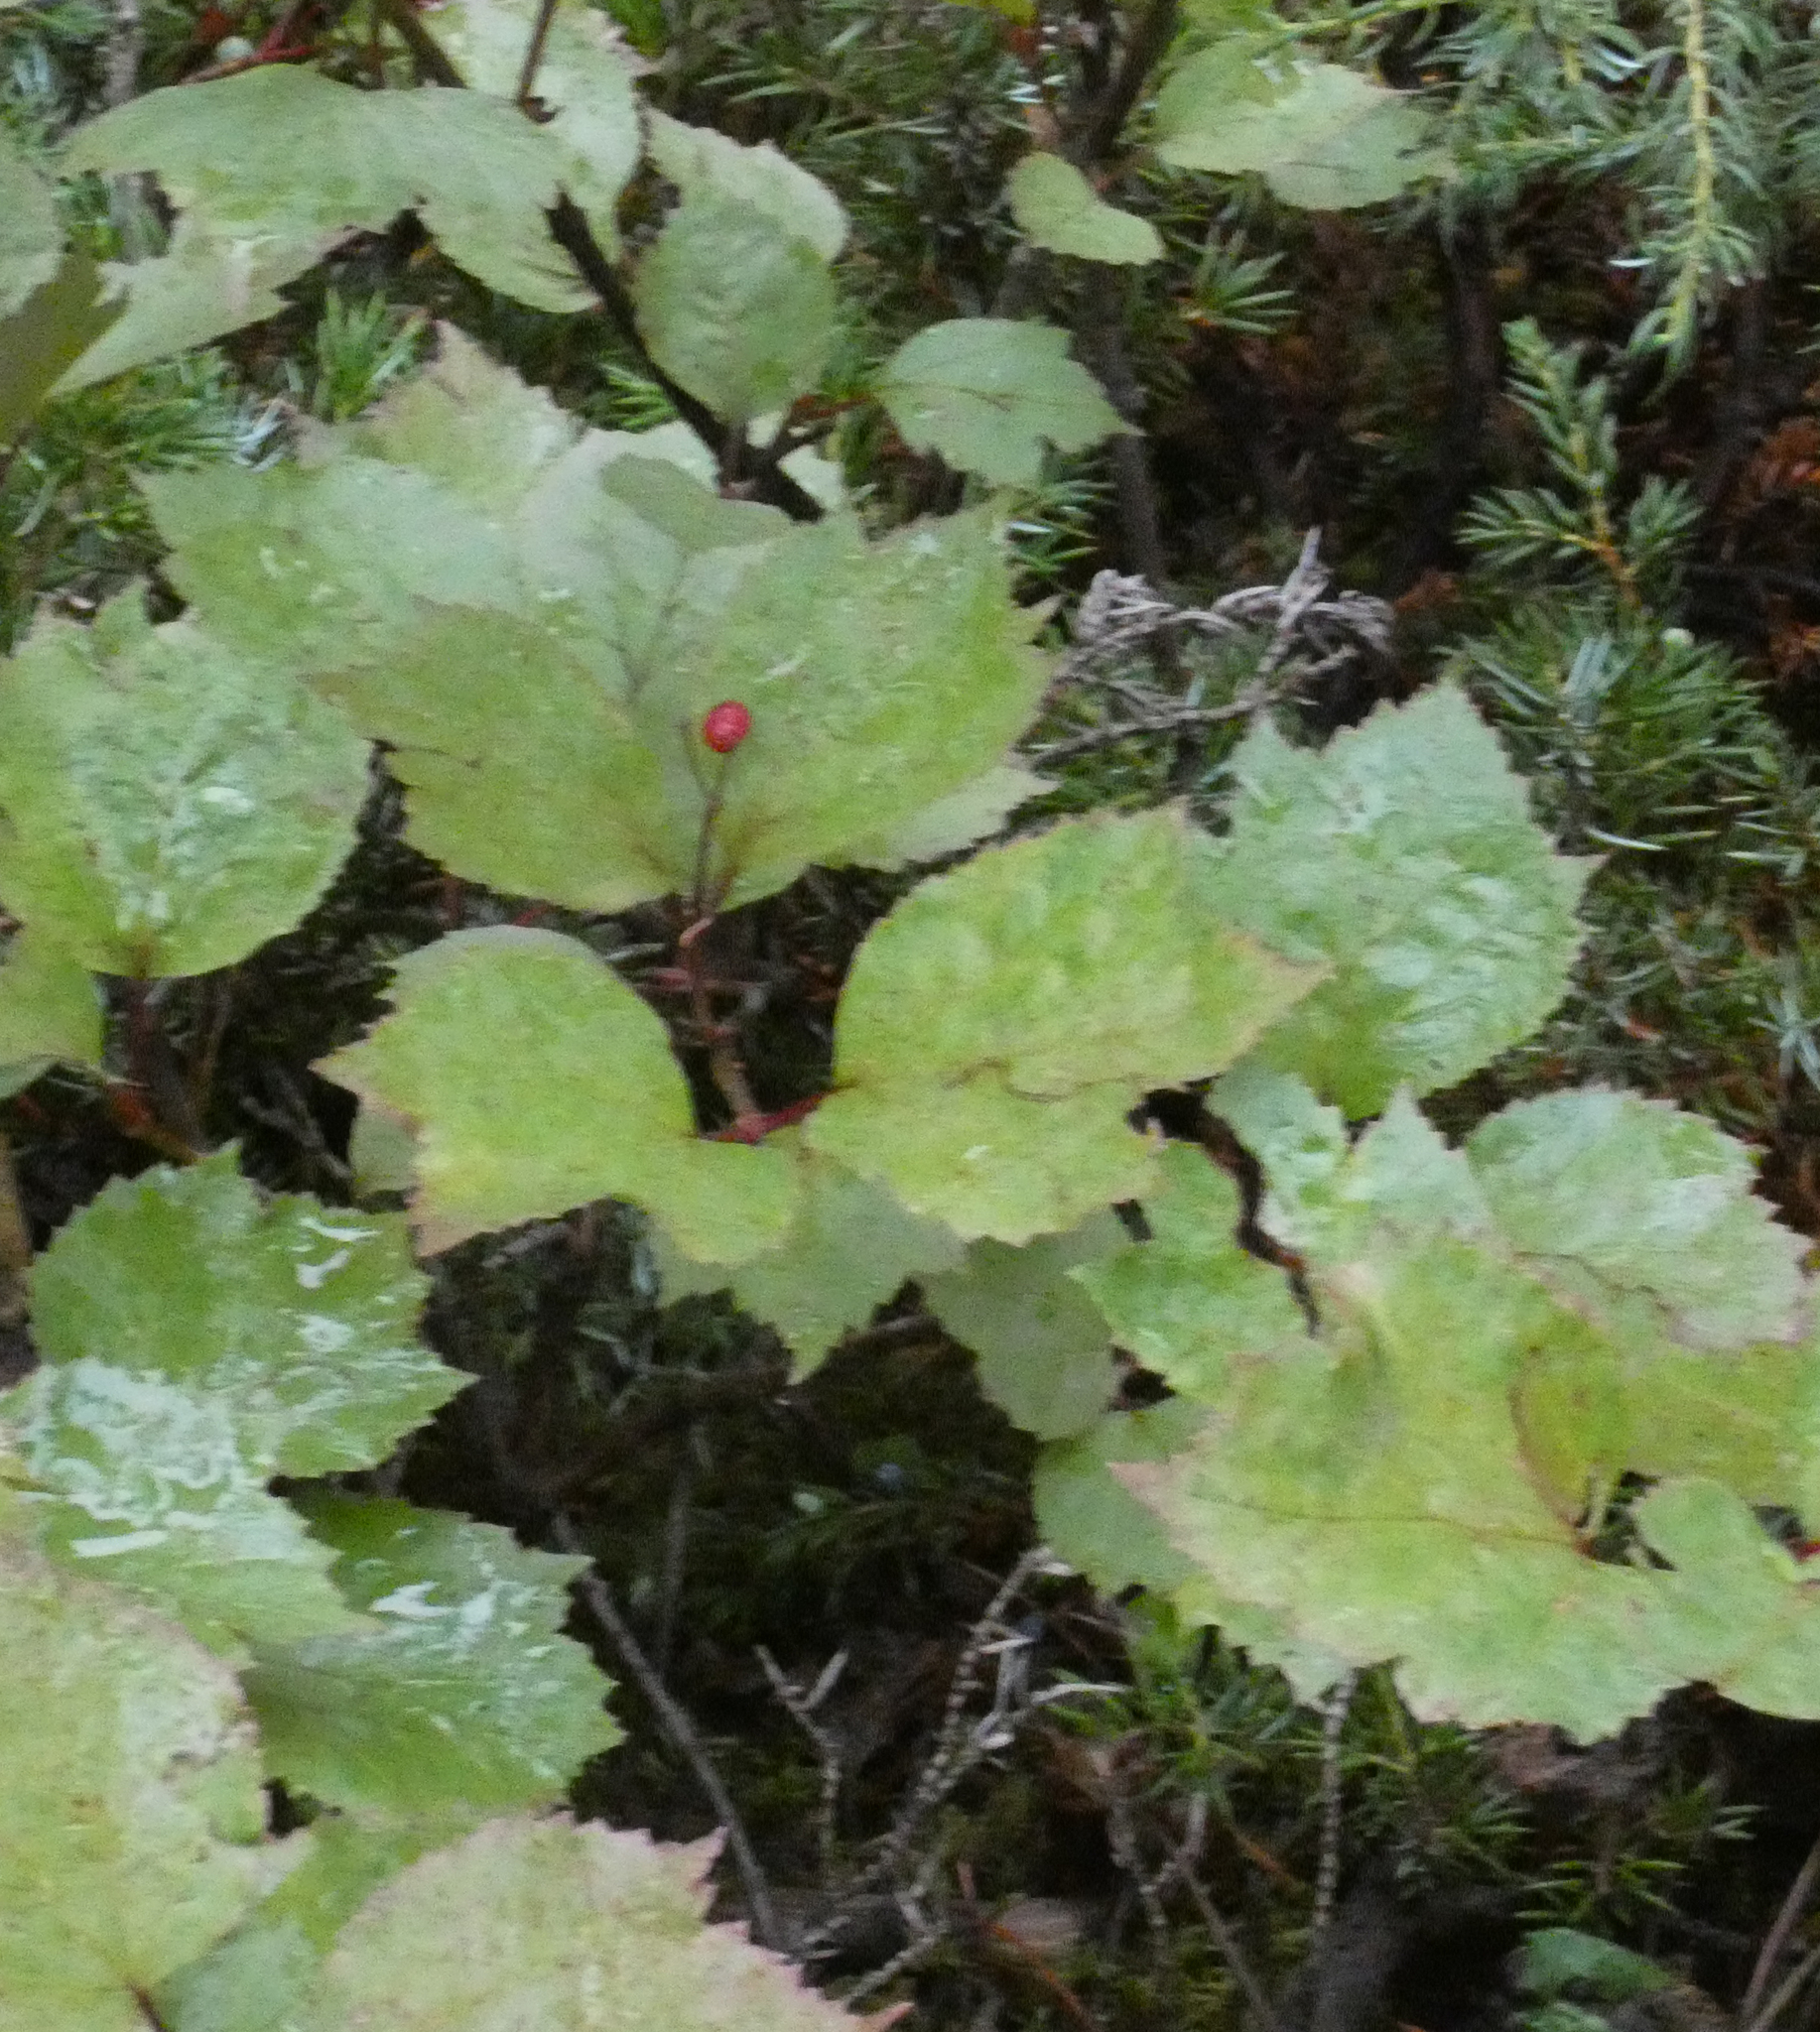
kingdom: Plantae
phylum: Tracheophyta
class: Magnoliopsida
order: Dipsacales
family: Viburnaceae
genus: Viburnum
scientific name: Viburnum edule
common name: Mooseberry
